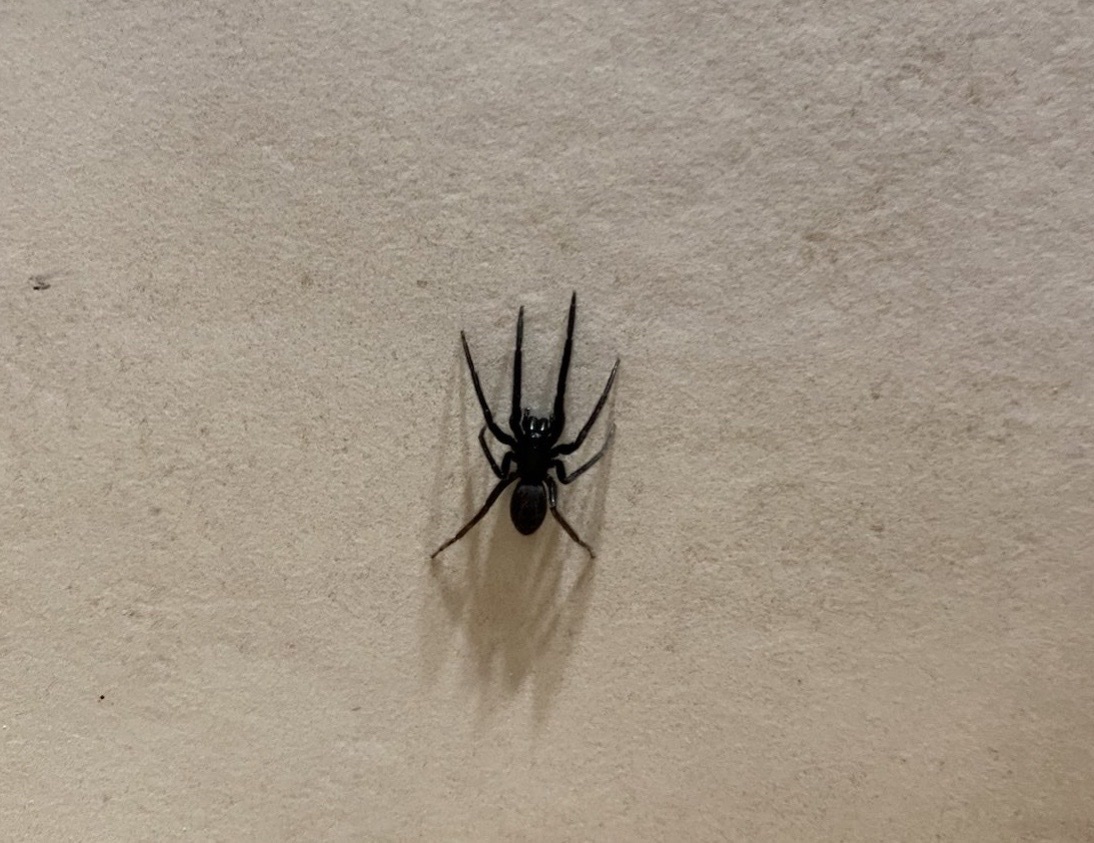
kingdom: Animalia
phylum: Arthropoda
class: Arachnida
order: Araneae
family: Segestriidae
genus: Segestria
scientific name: Segestria florentina
